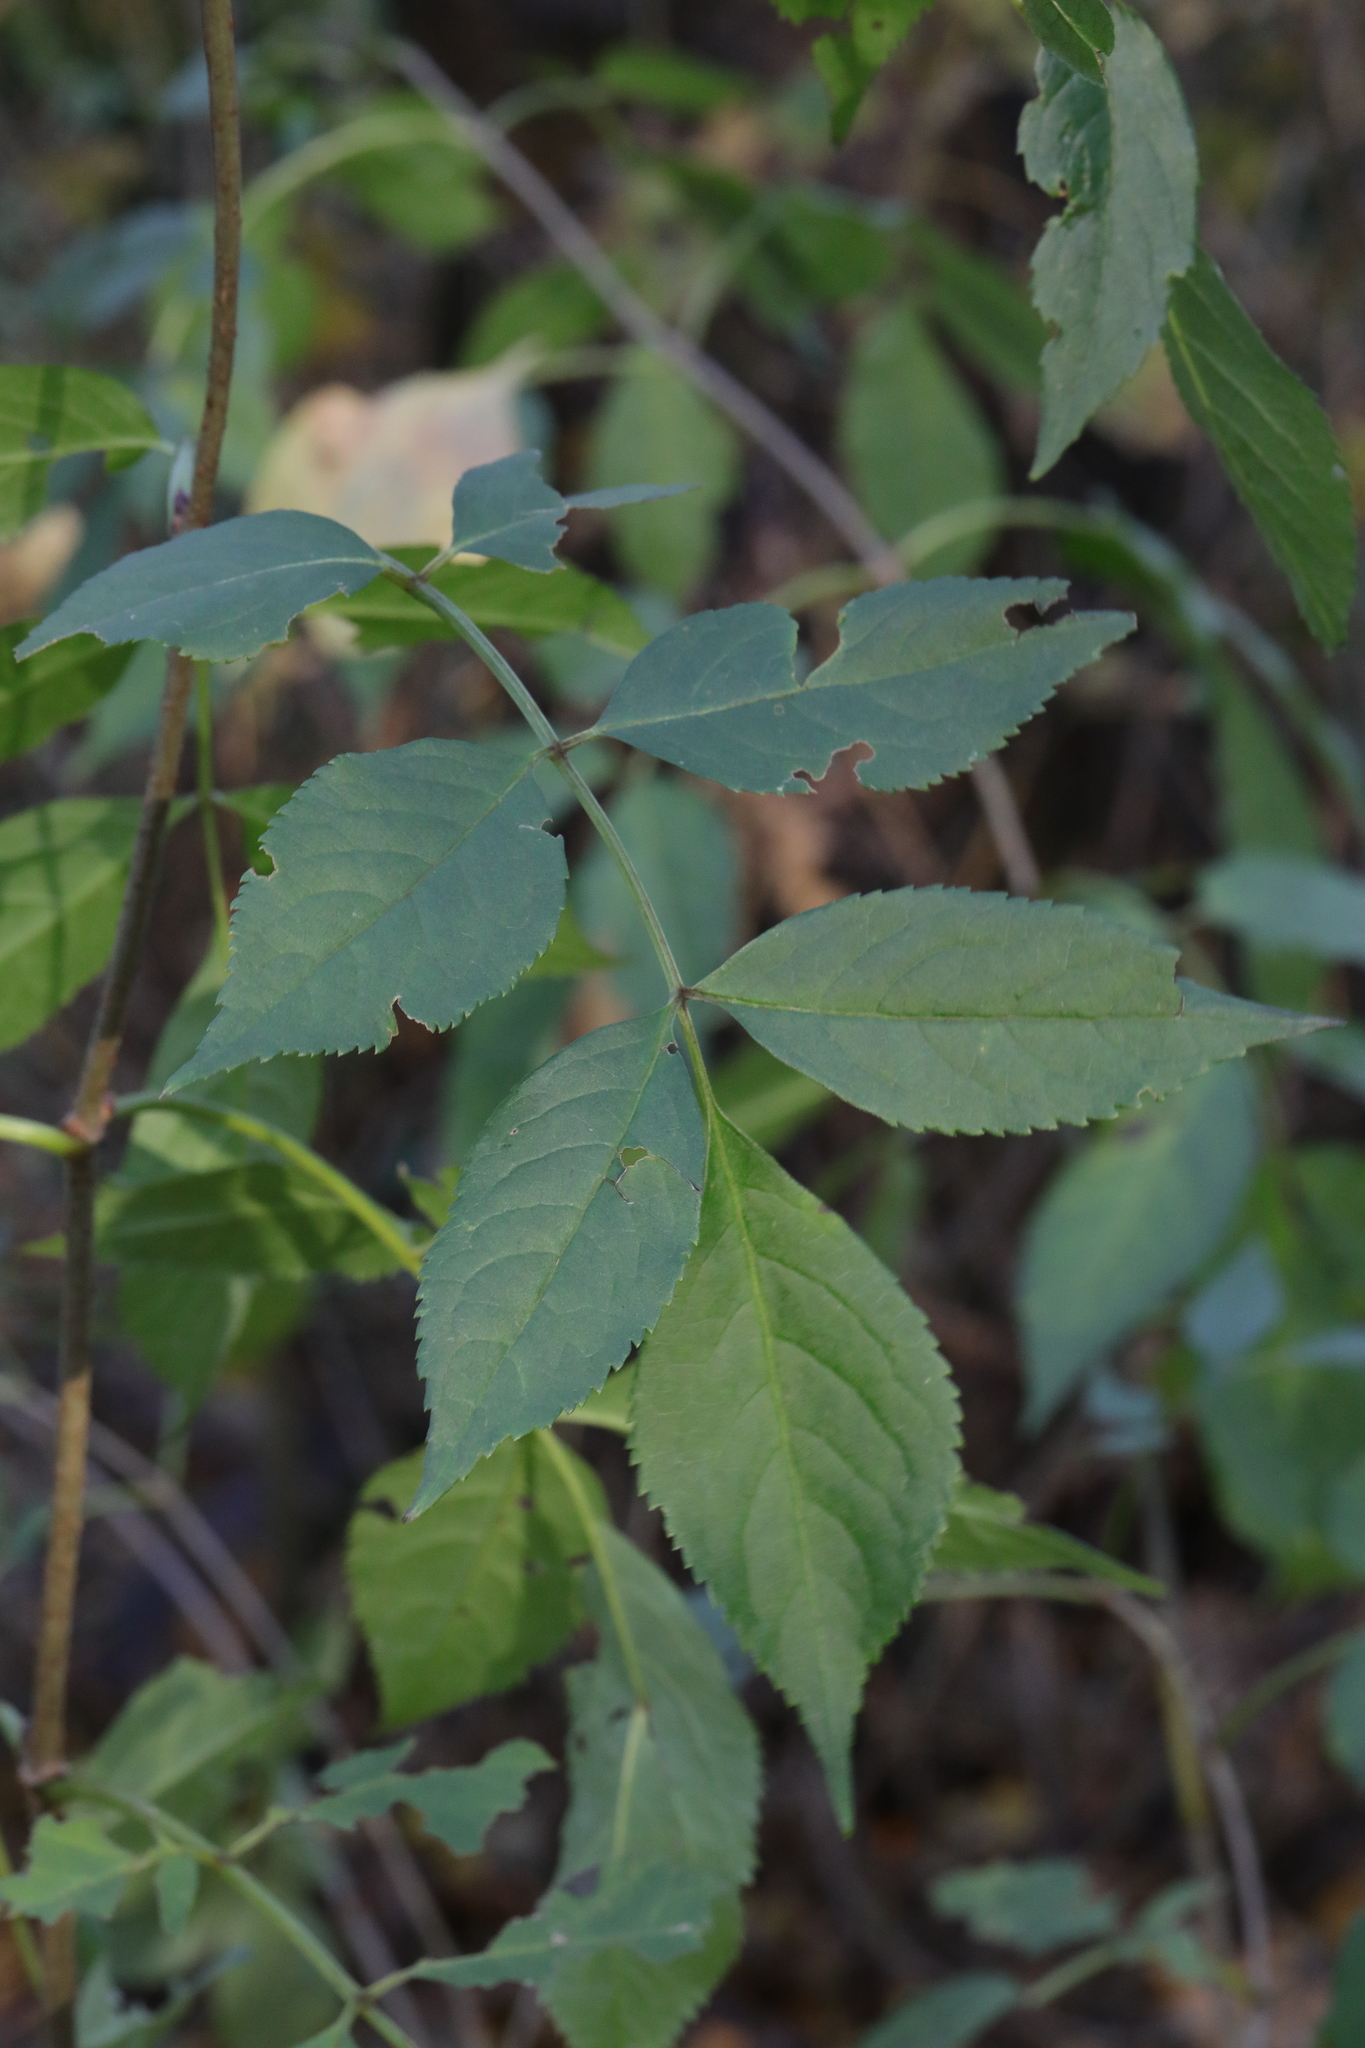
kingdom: Plantae
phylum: Tracheophyta
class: Magnoliopsida
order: Dipsacales
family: Viburnaceae
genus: Sambucus
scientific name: Sambucus nigra
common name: Elder
